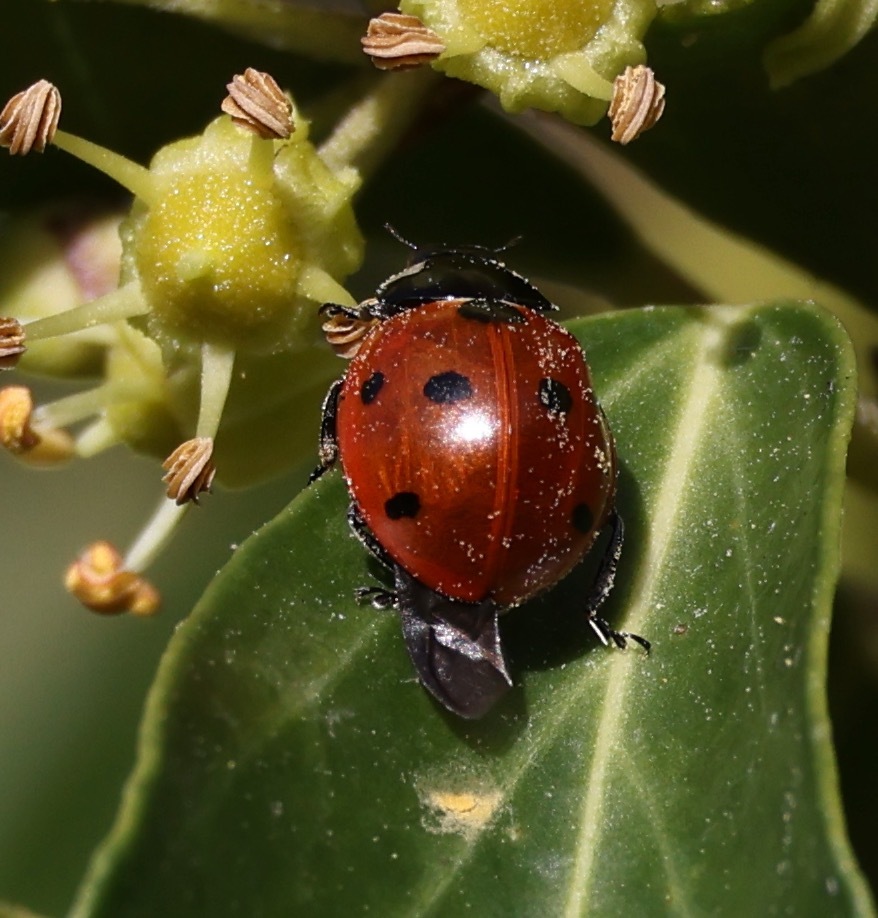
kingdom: Animalia
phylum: Arthropoda
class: Insecta
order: Coleoptera
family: Coccinellidae
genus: Coccinella
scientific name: Coccinella septempunctata
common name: Sevenspotted lady beetle
